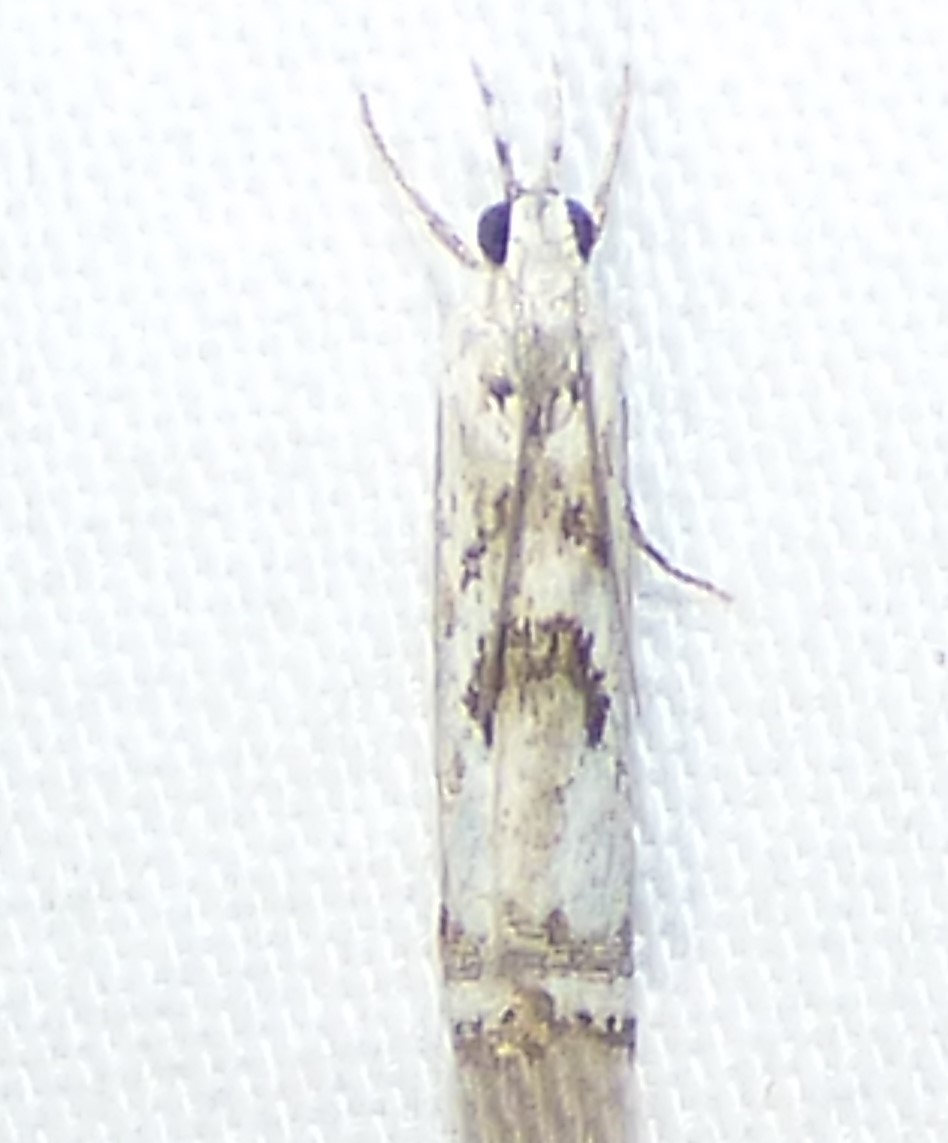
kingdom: Animalia
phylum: Arthropoda
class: Insecta
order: Lepidoptera
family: Crambidae
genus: Microcrambus
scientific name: Microcrambus immunellus
